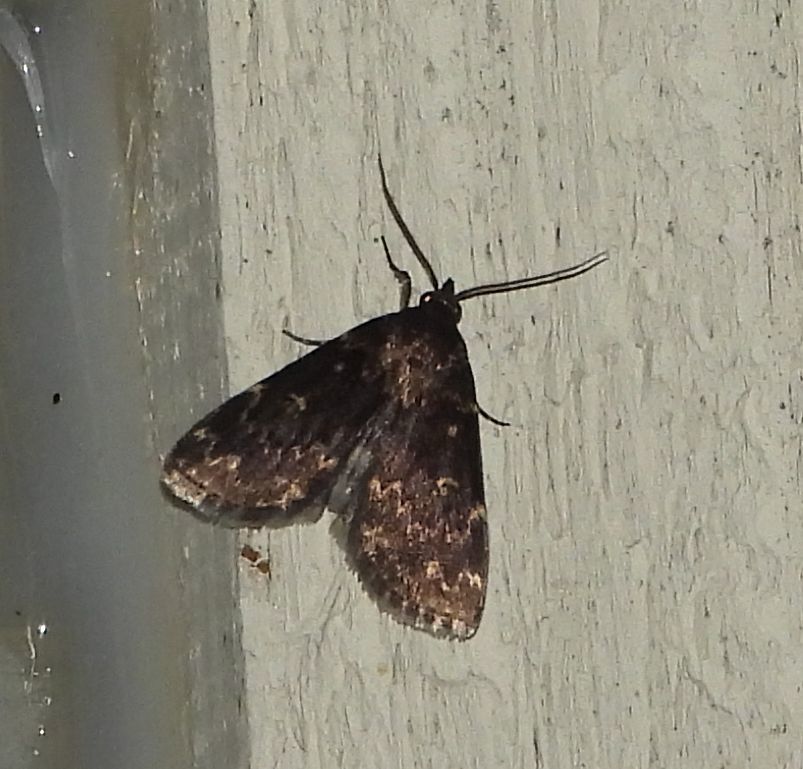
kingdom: Animalia
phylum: Arthropoda
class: Insecta
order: Lepidoptera
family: Erebidae
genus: Idia
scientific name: Idia lubricalis
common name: Twin-striped tabby
